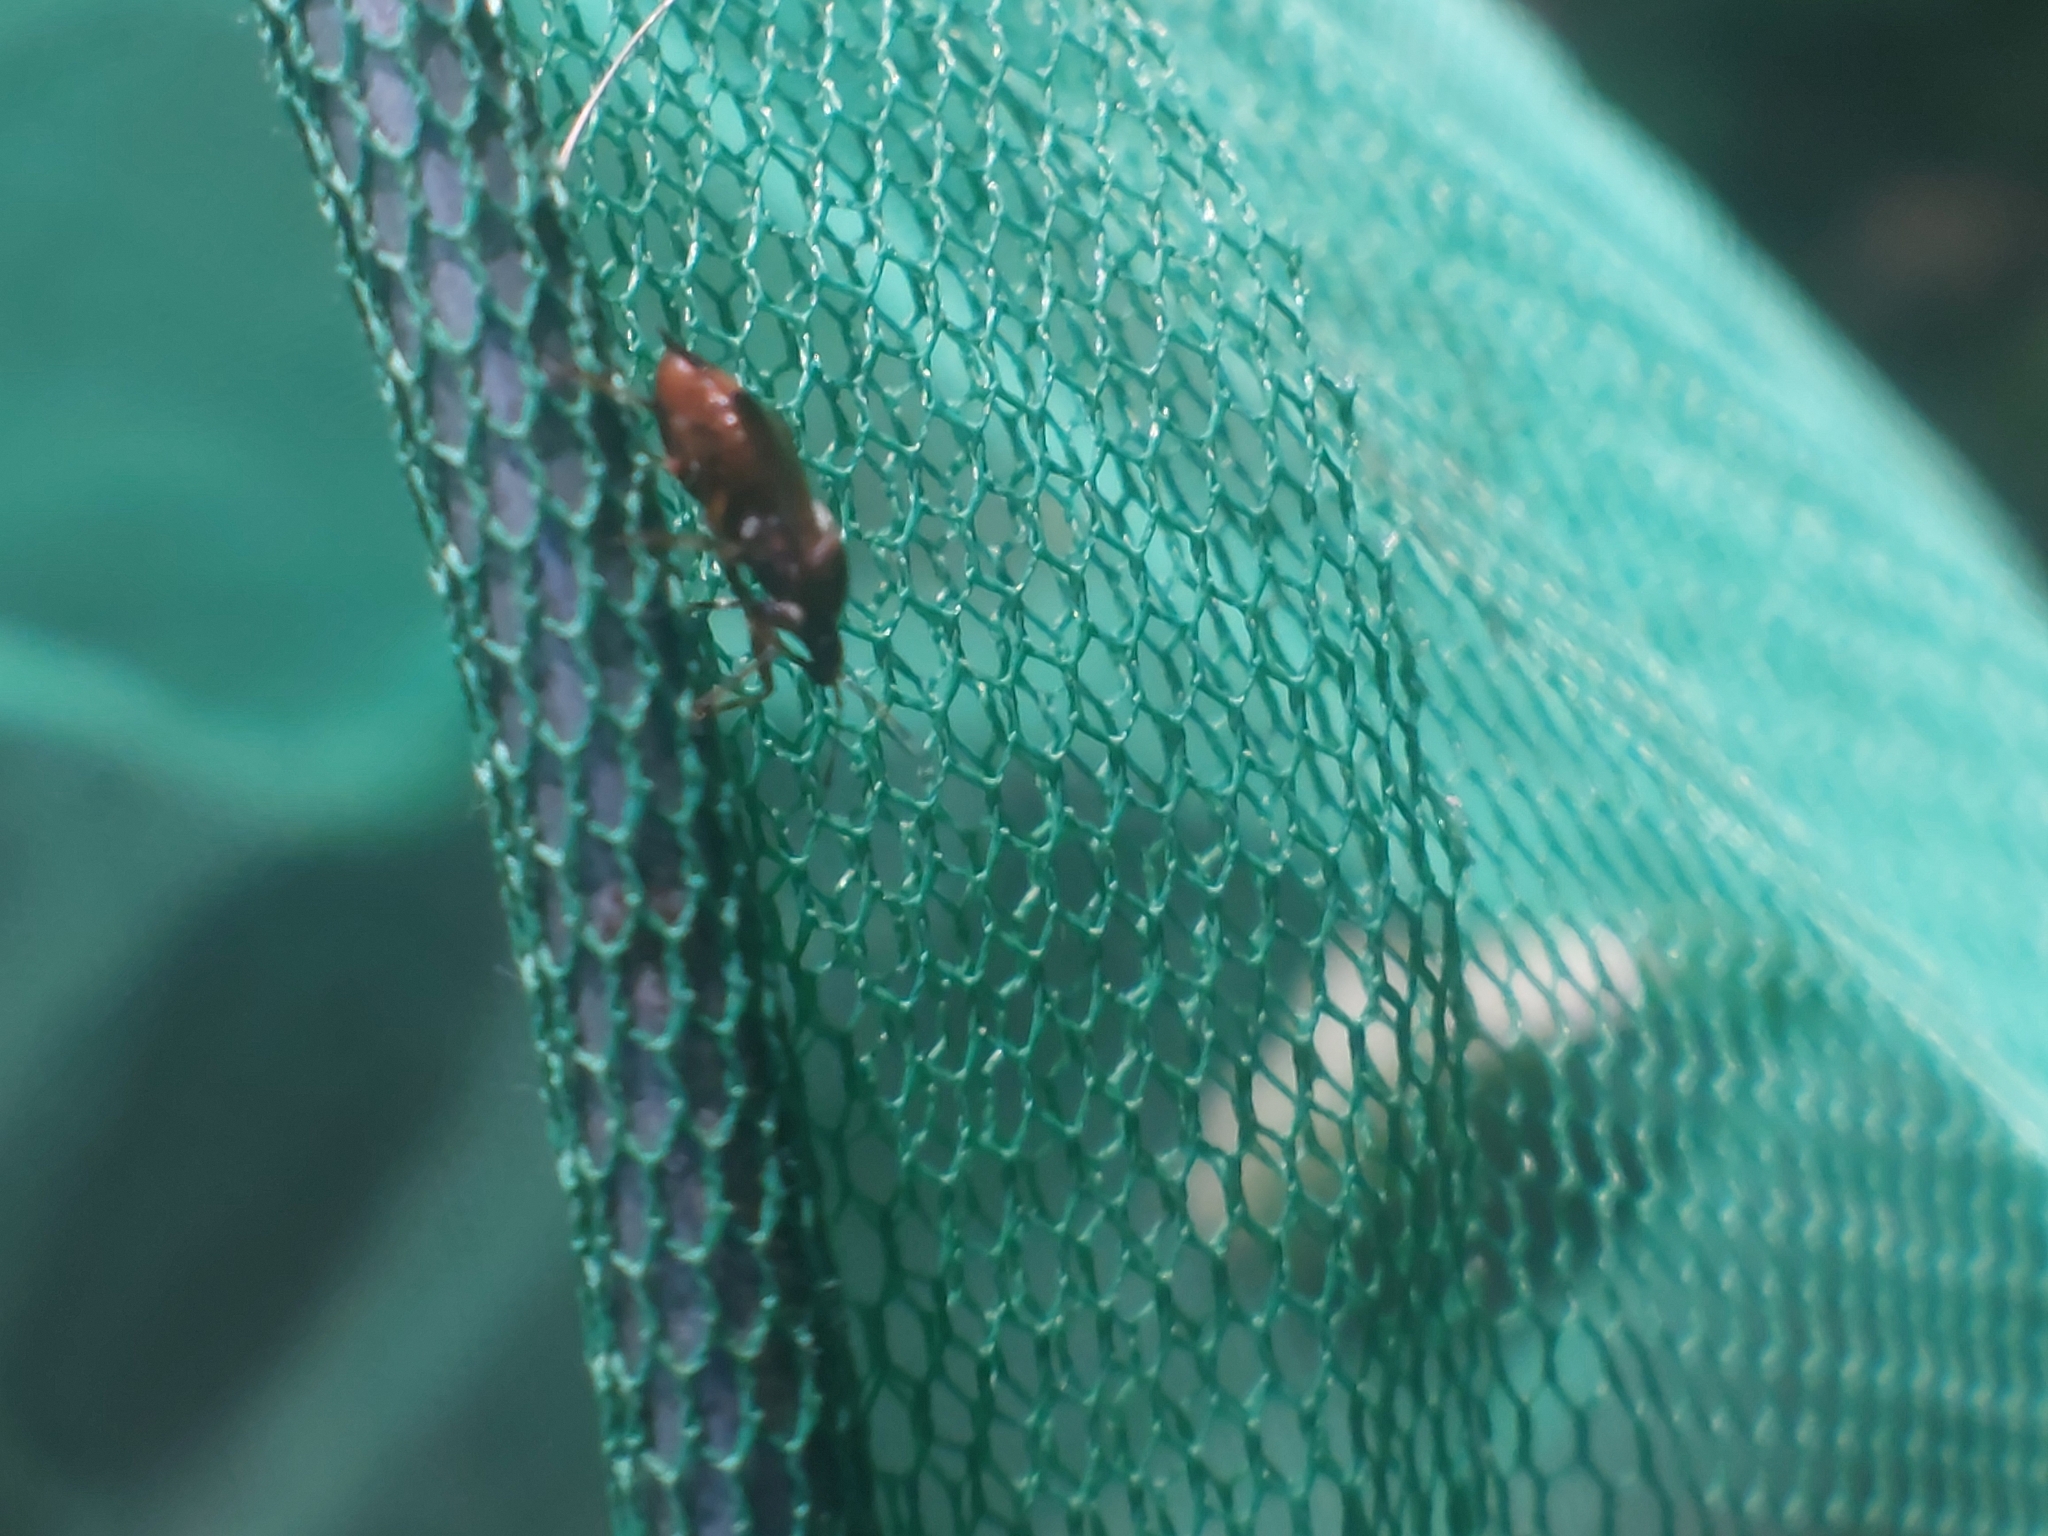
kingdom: Animalia
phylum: Arthropoda
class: Insecta
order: Hemiptera
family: Miridae
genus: Deraeocoris
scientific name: Deraeocoris flavilinea
